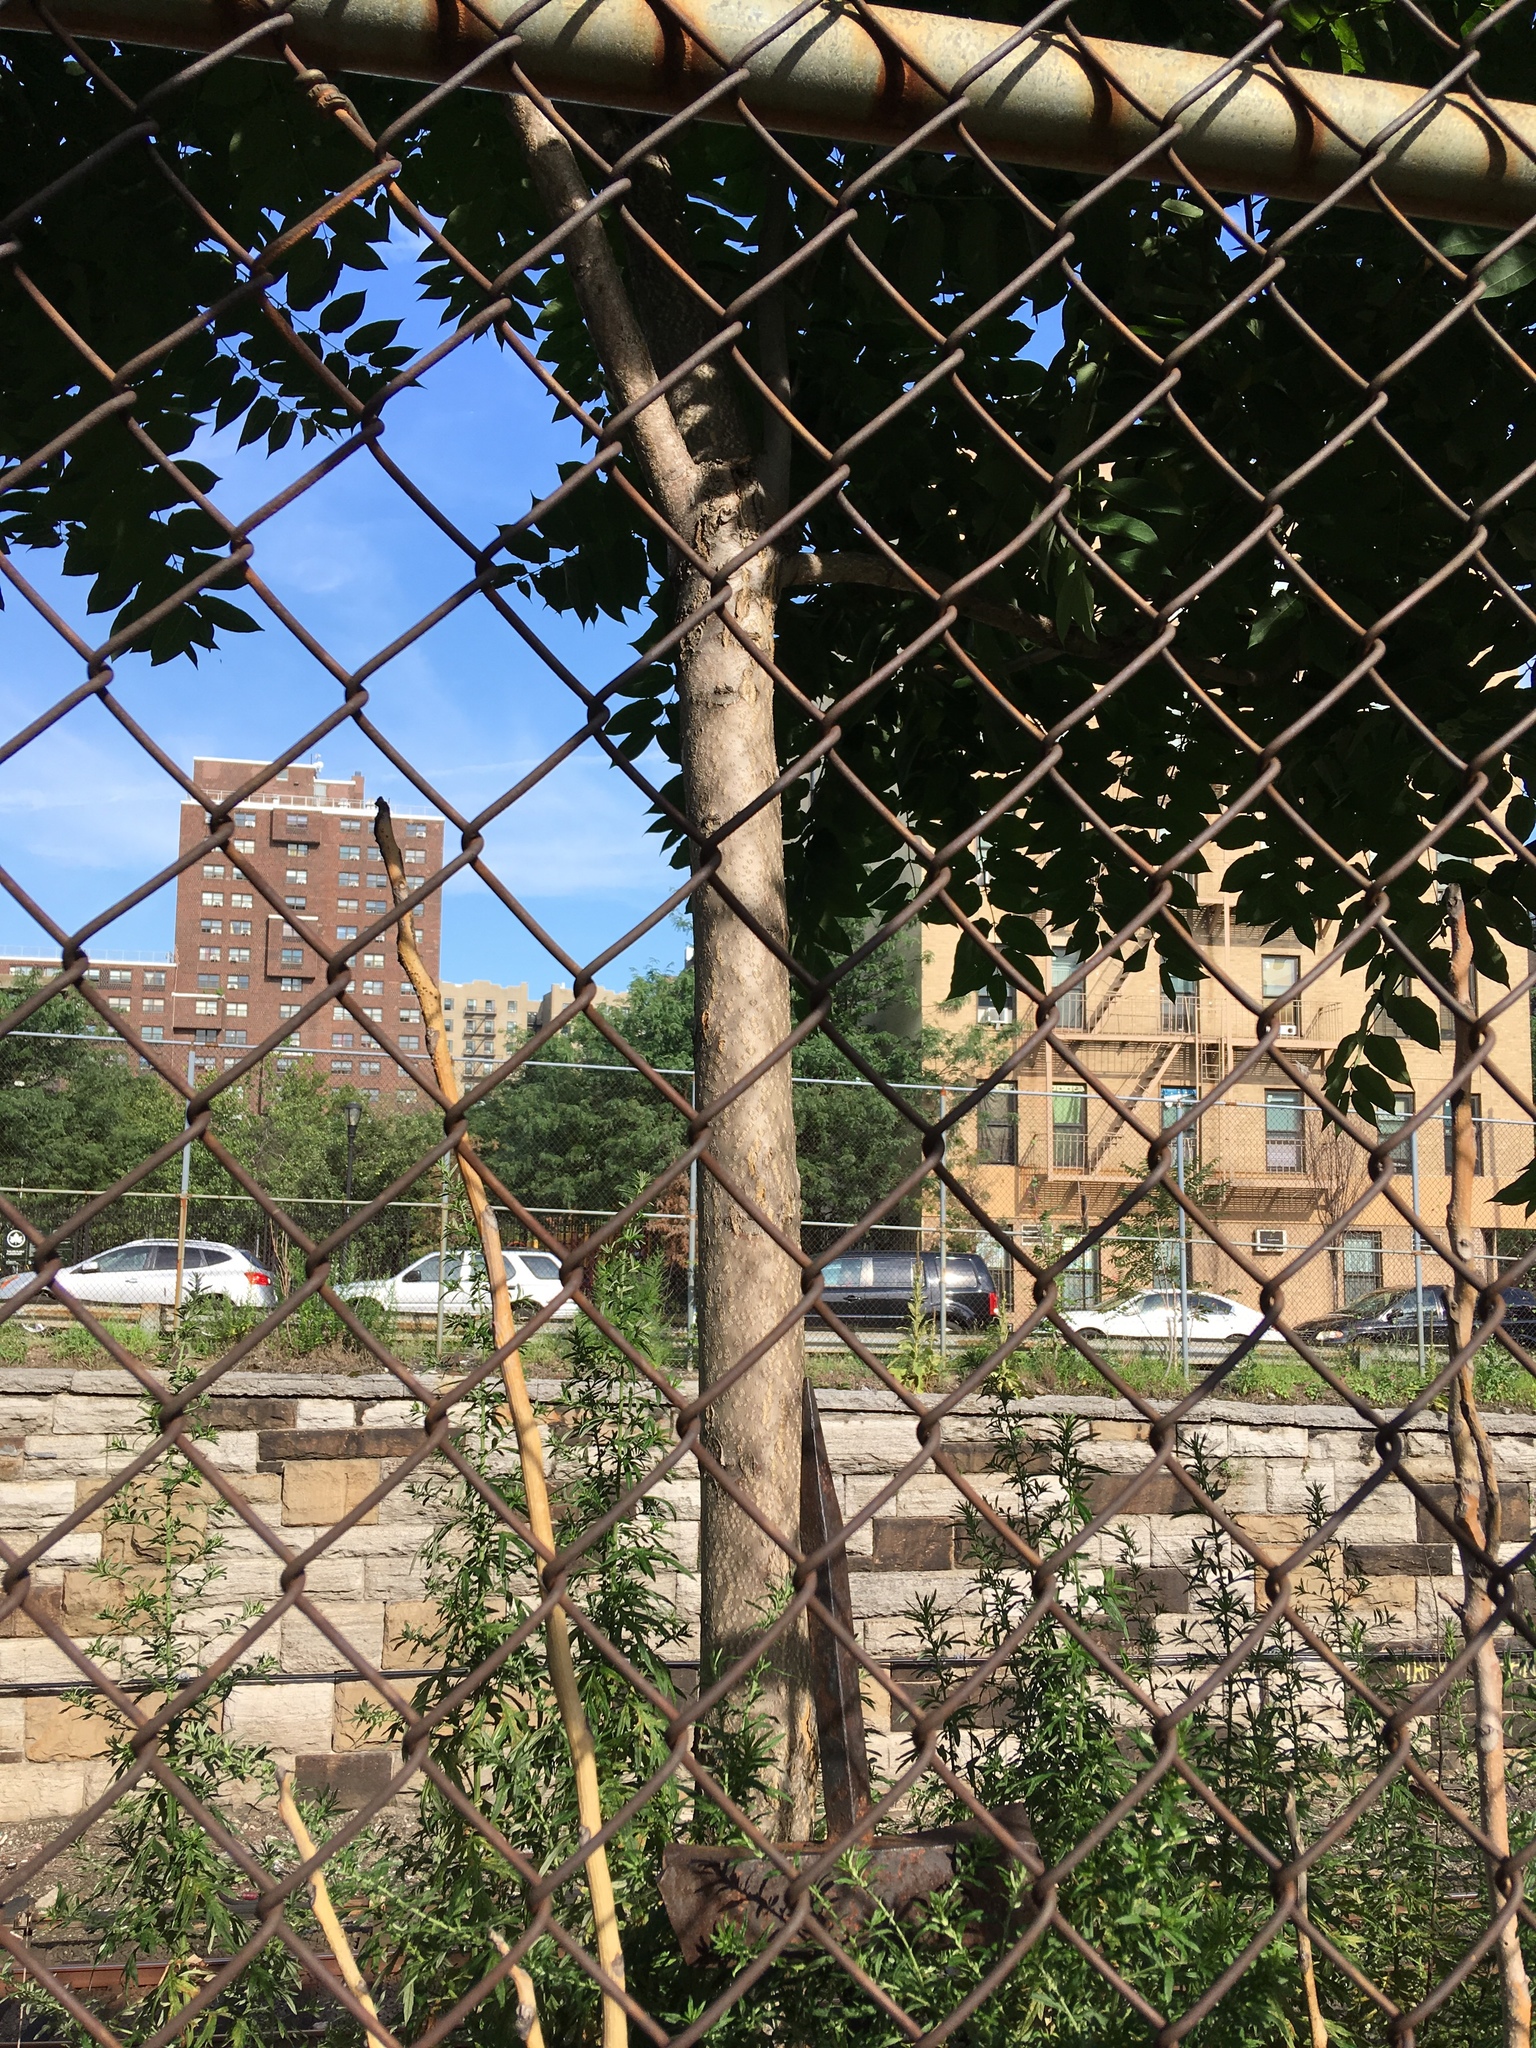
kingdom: Plantae
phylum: Tracheophyta
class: Magnoliopsida
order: Sapindales
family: Simaroubaceae
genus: Ailanthus
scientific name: Ailanthus altissima
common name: Tree-of-heaven
